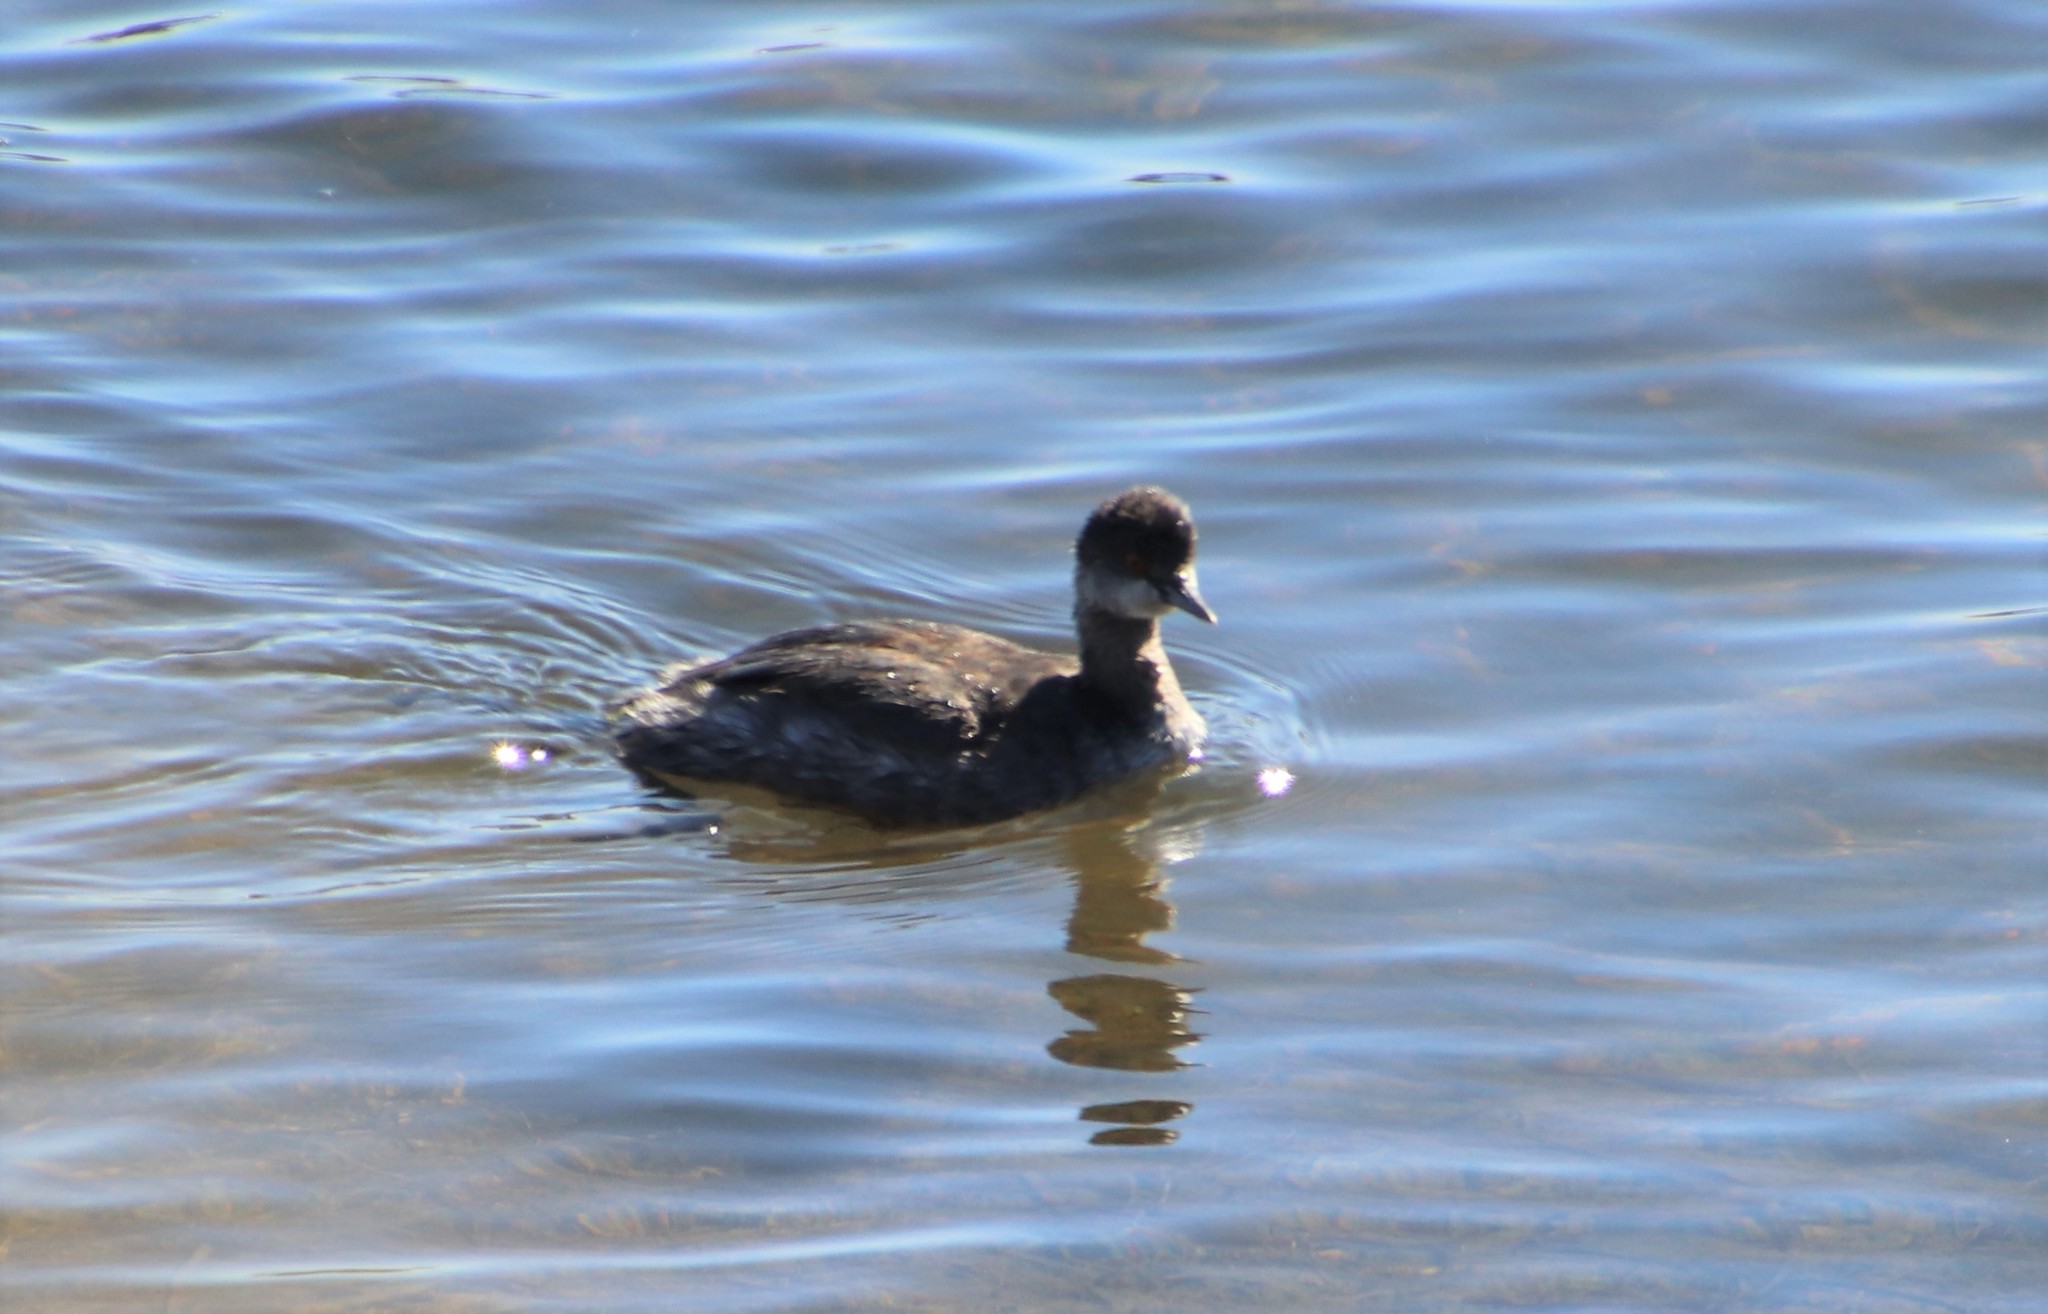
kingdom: Animalia
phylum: Chordata
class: Aves
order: Podicipediformes
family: Podicipedidae
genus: Podiceps
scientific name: Podiceps nigricollis
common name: Black-necked grebe
